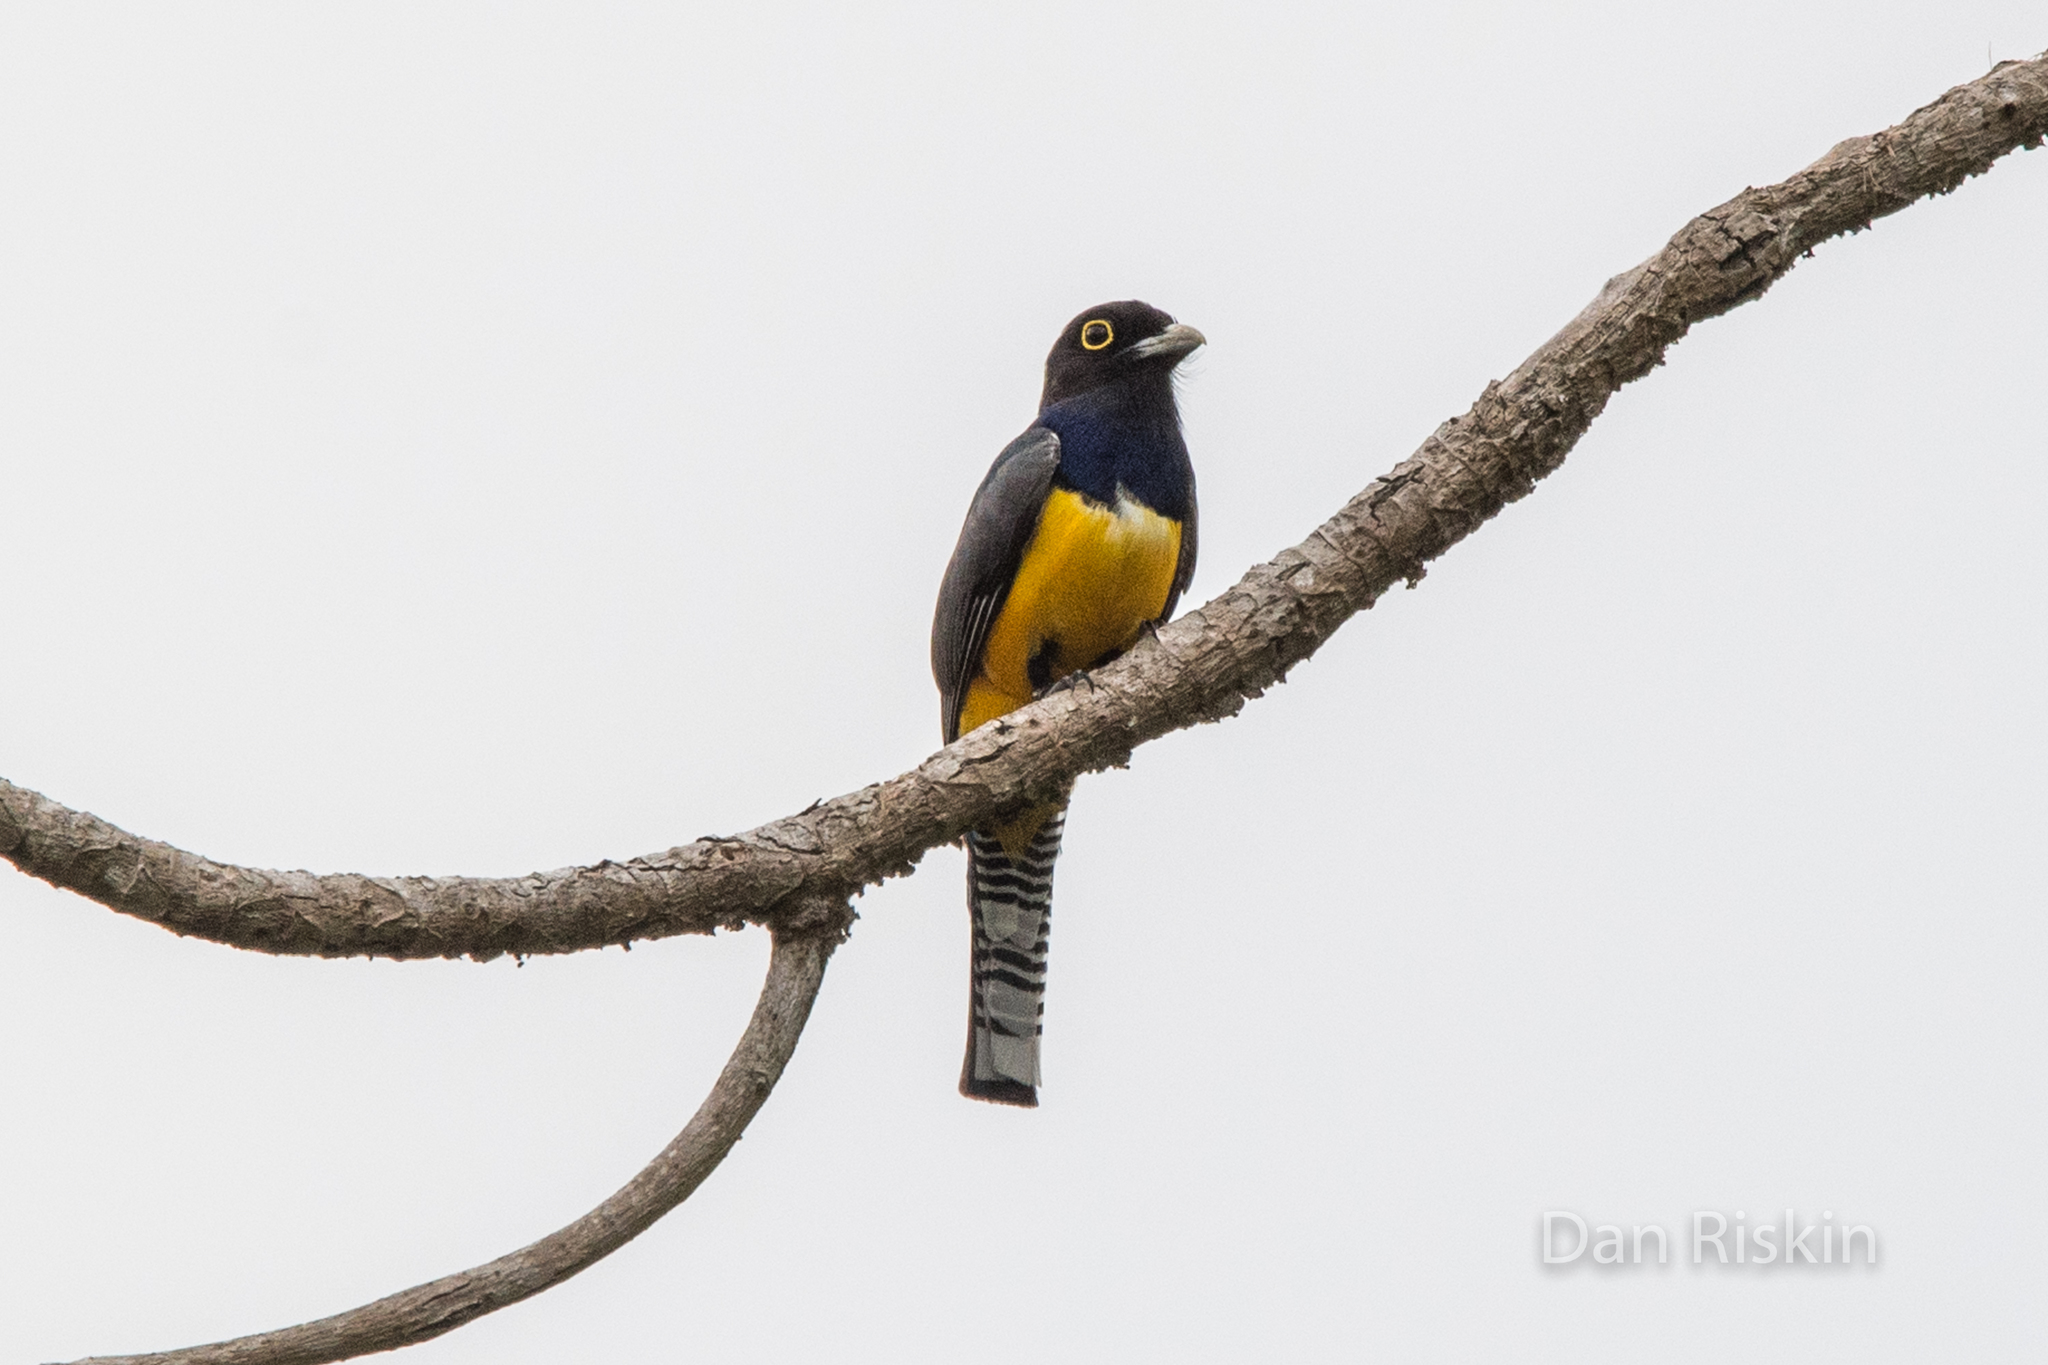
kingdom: Animalia
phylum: Chordata
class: Aves
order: Trogoniformes
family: Trogonidae
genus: Trogon
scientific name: Trogon caligatus
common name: Gartered trogon
